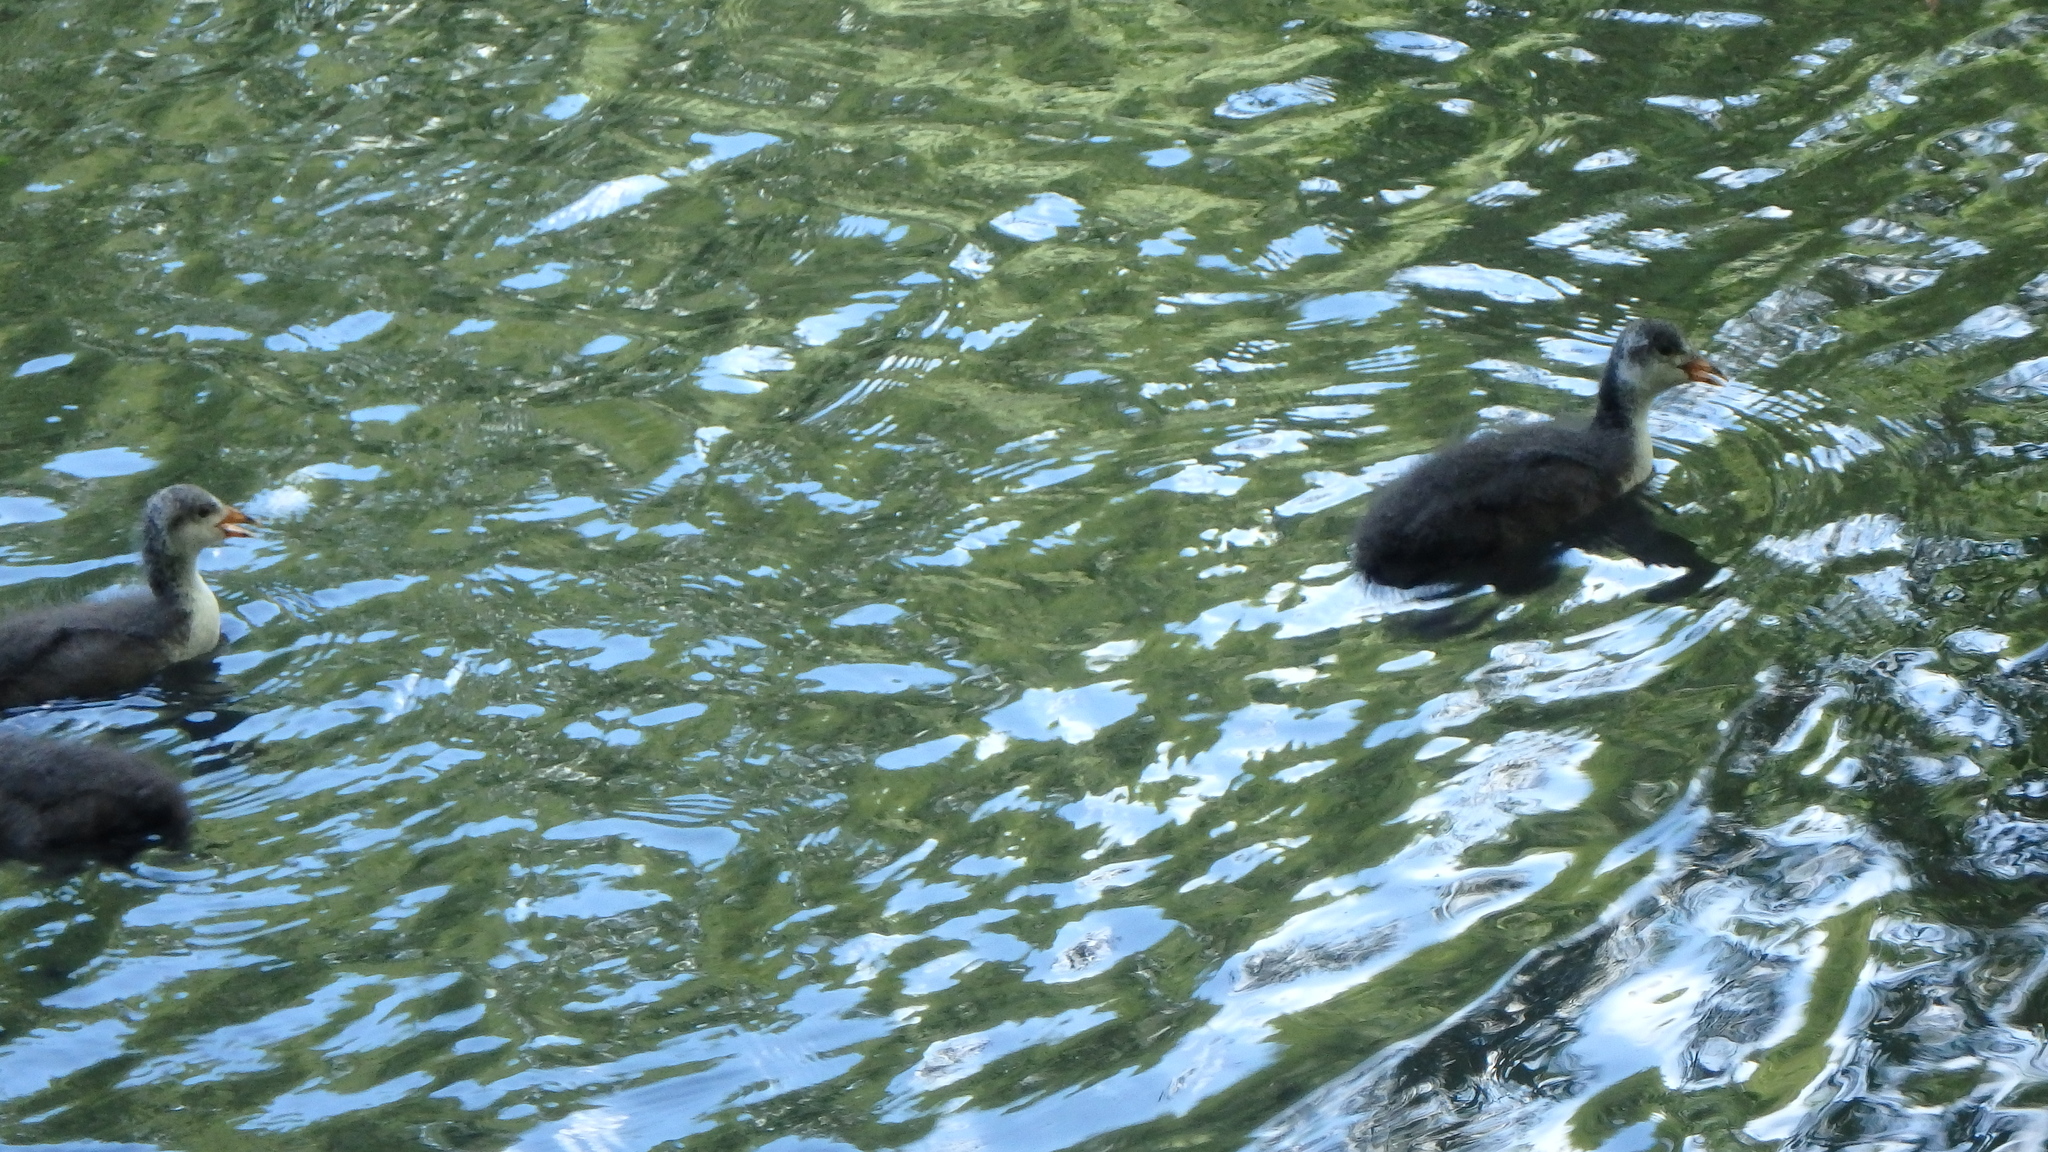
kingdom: Animalia
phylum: Chordata
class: Aves
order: Gruiformes
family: Rallidae
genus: Fulica
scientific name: Fulica atra
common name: Eurasian coot
